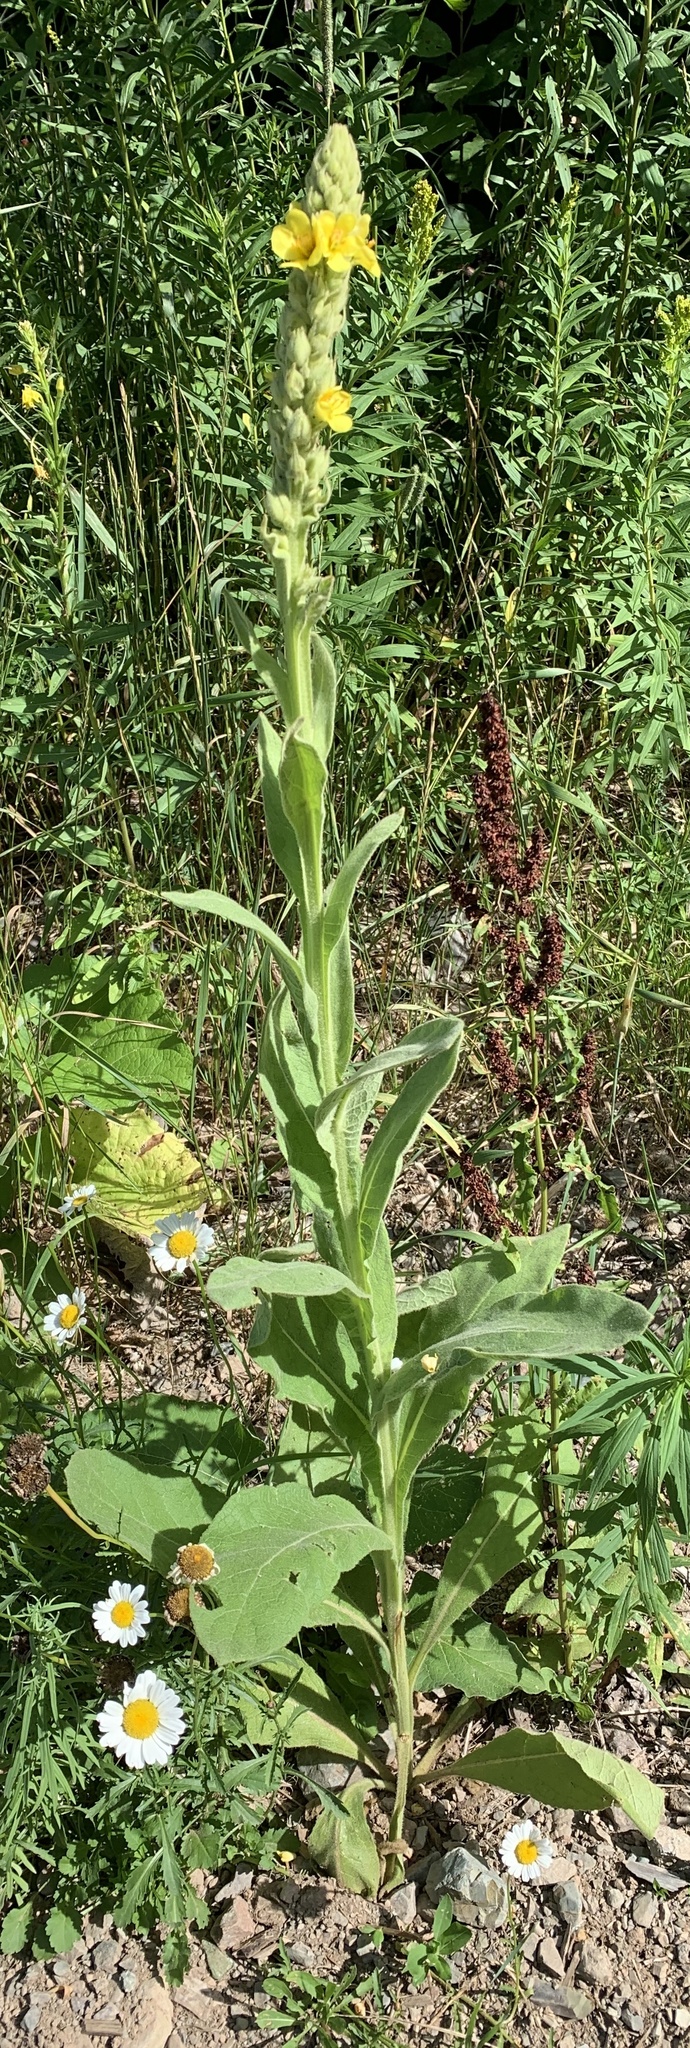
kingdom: Plantae
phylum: Tracheophyta
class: Magnoliopsida
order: Lamiales
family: Scrophulariaceae
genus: Verbascum
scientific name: Verbascum thapsus
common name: Common mullein
